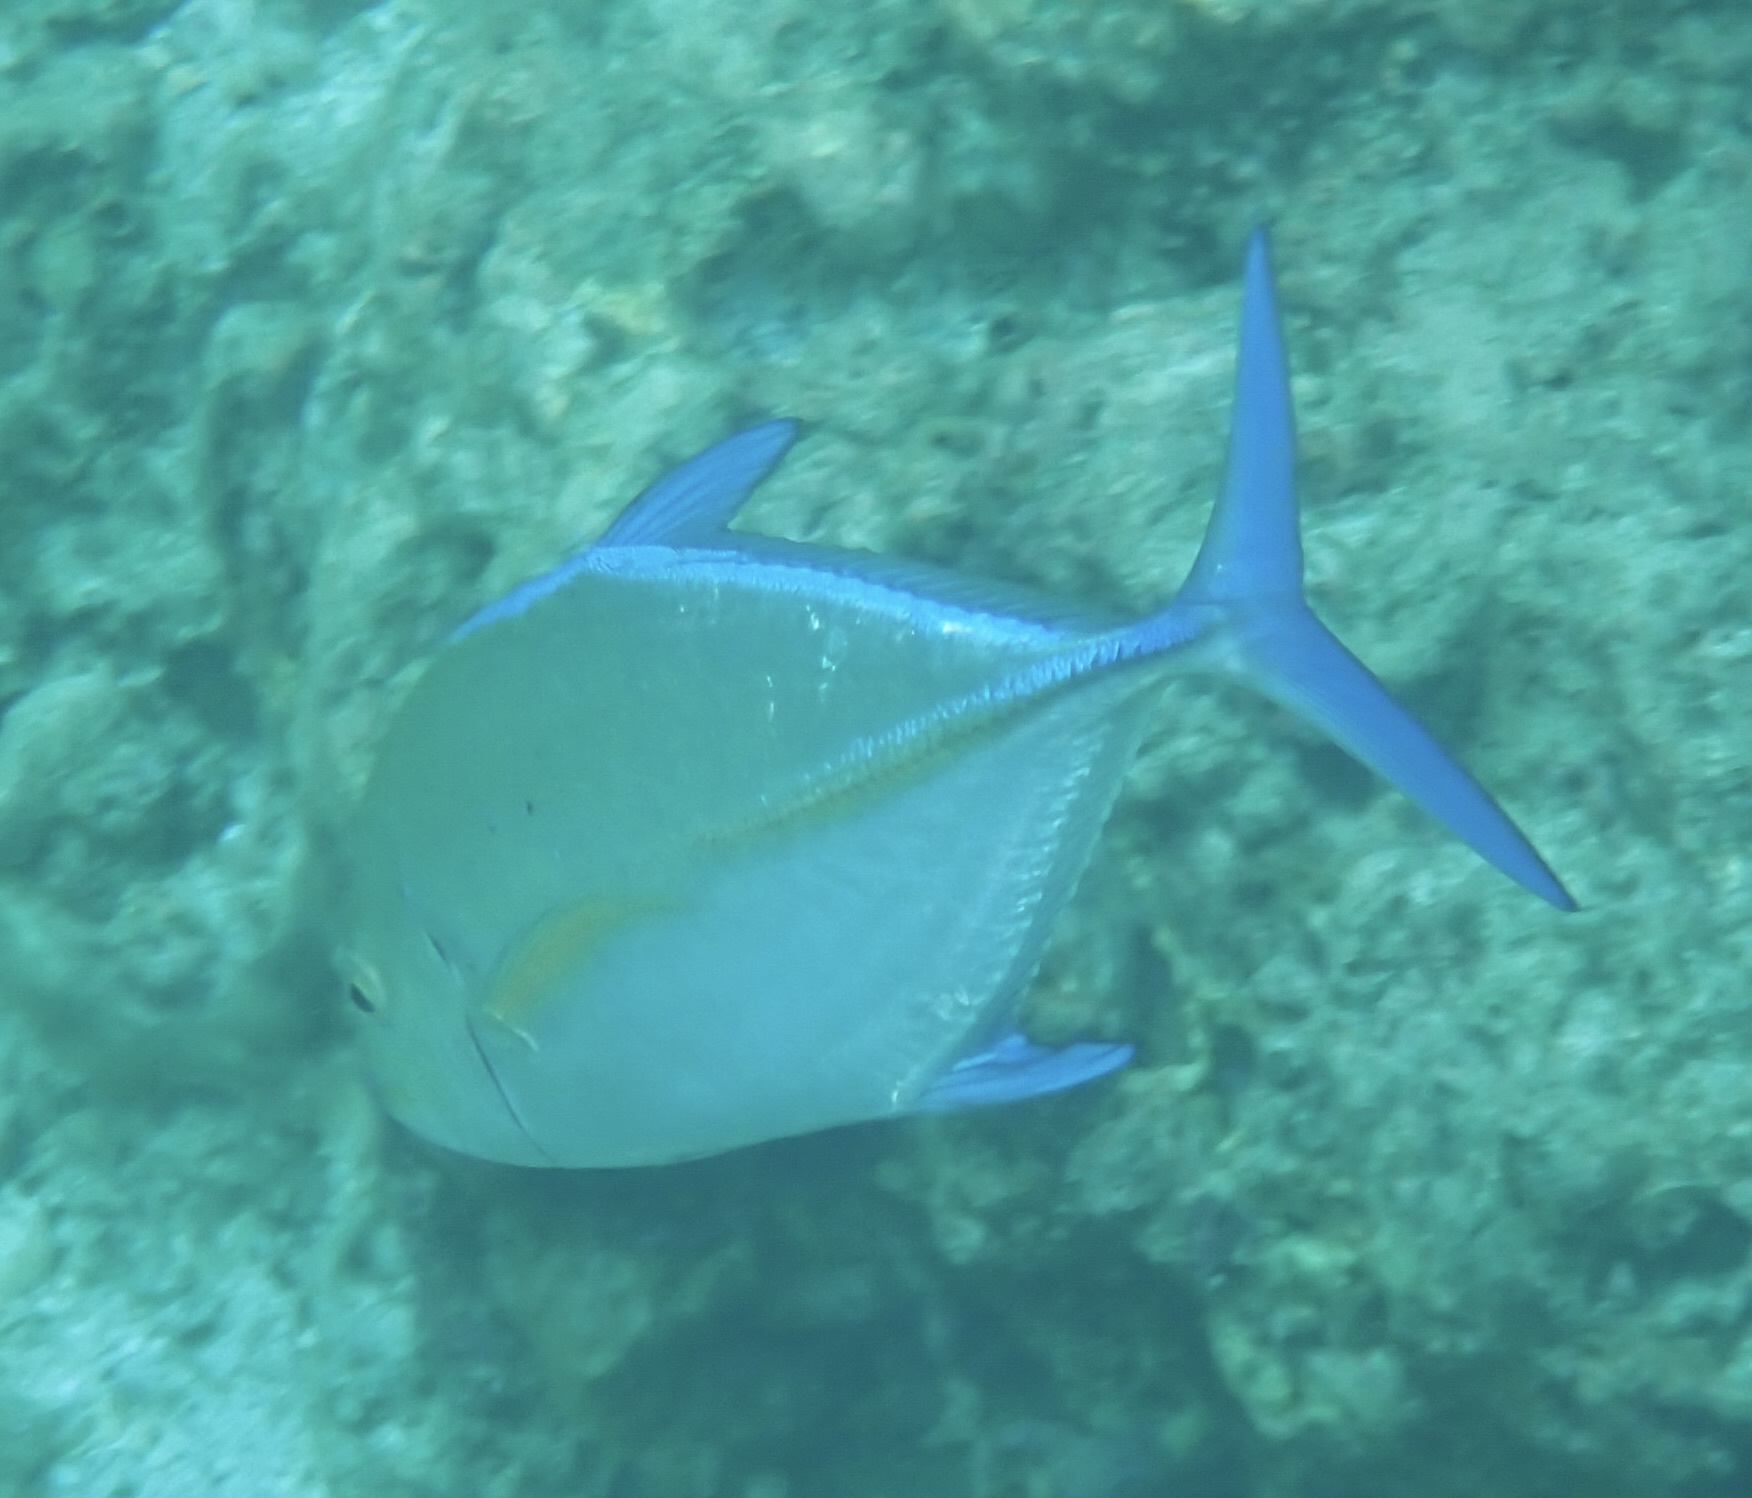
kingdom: Animalia
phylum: Chordata
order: Perciformes
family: Carangidae
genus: Caranx
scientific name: Caranx melampygus
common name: Bluefin trevally
